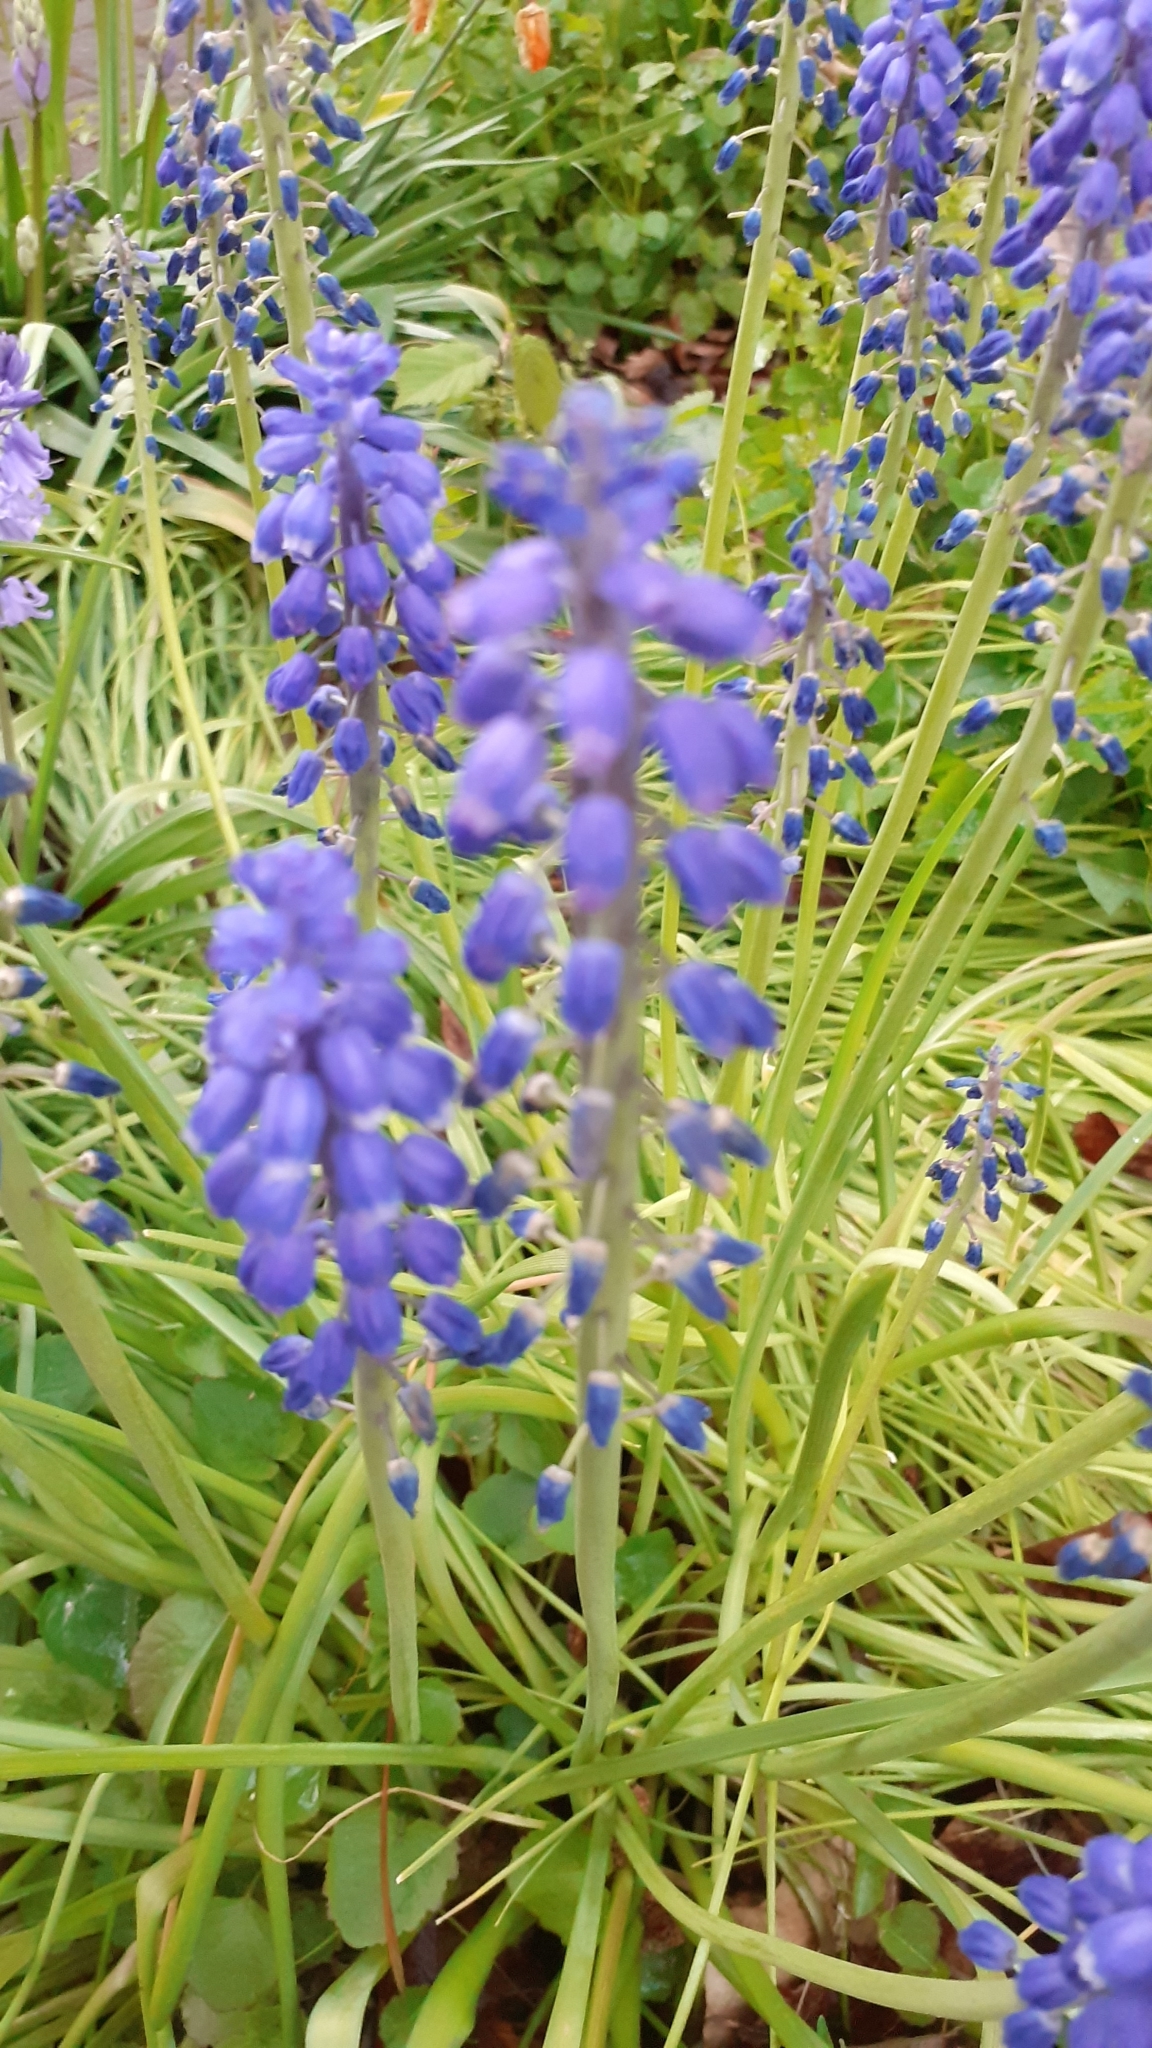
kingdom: Plantae
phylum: Tracheophyta
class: Liliopsida
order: Asparagales
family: Asparagaceae
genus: Muscari
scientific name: Muscari armeniacum
